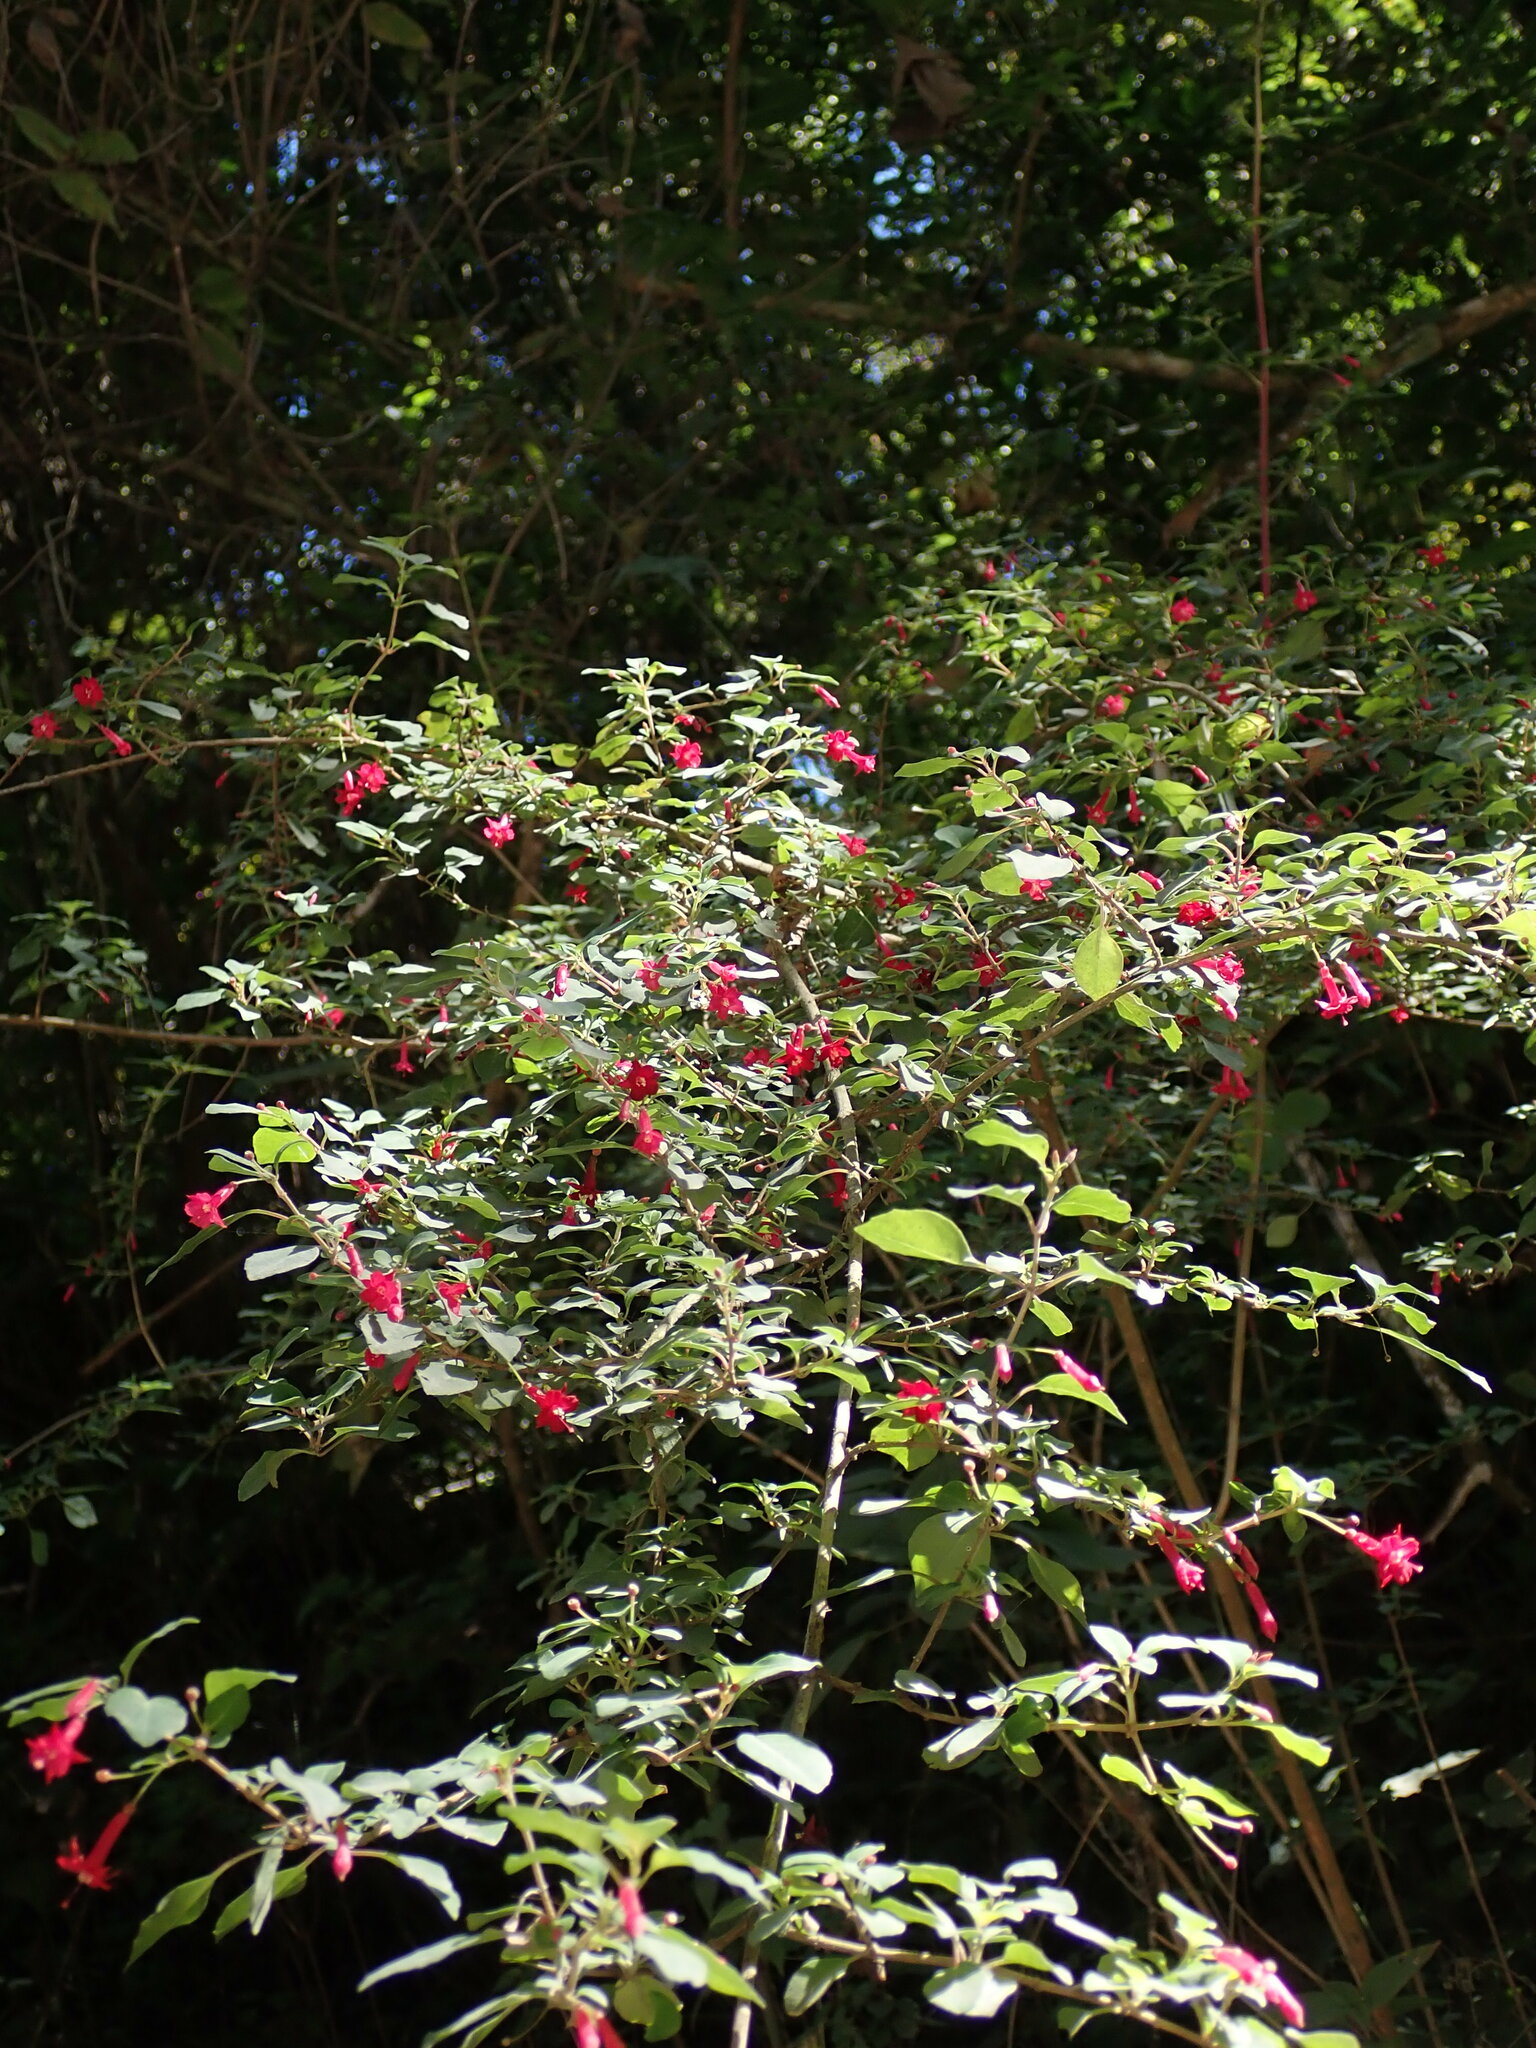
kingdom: Plantae
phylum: Tracheophyta
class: Magnoliopsida
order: Myrtales
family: Onagraceae
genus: Fuchsia
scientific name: Fuchsia microphylla
